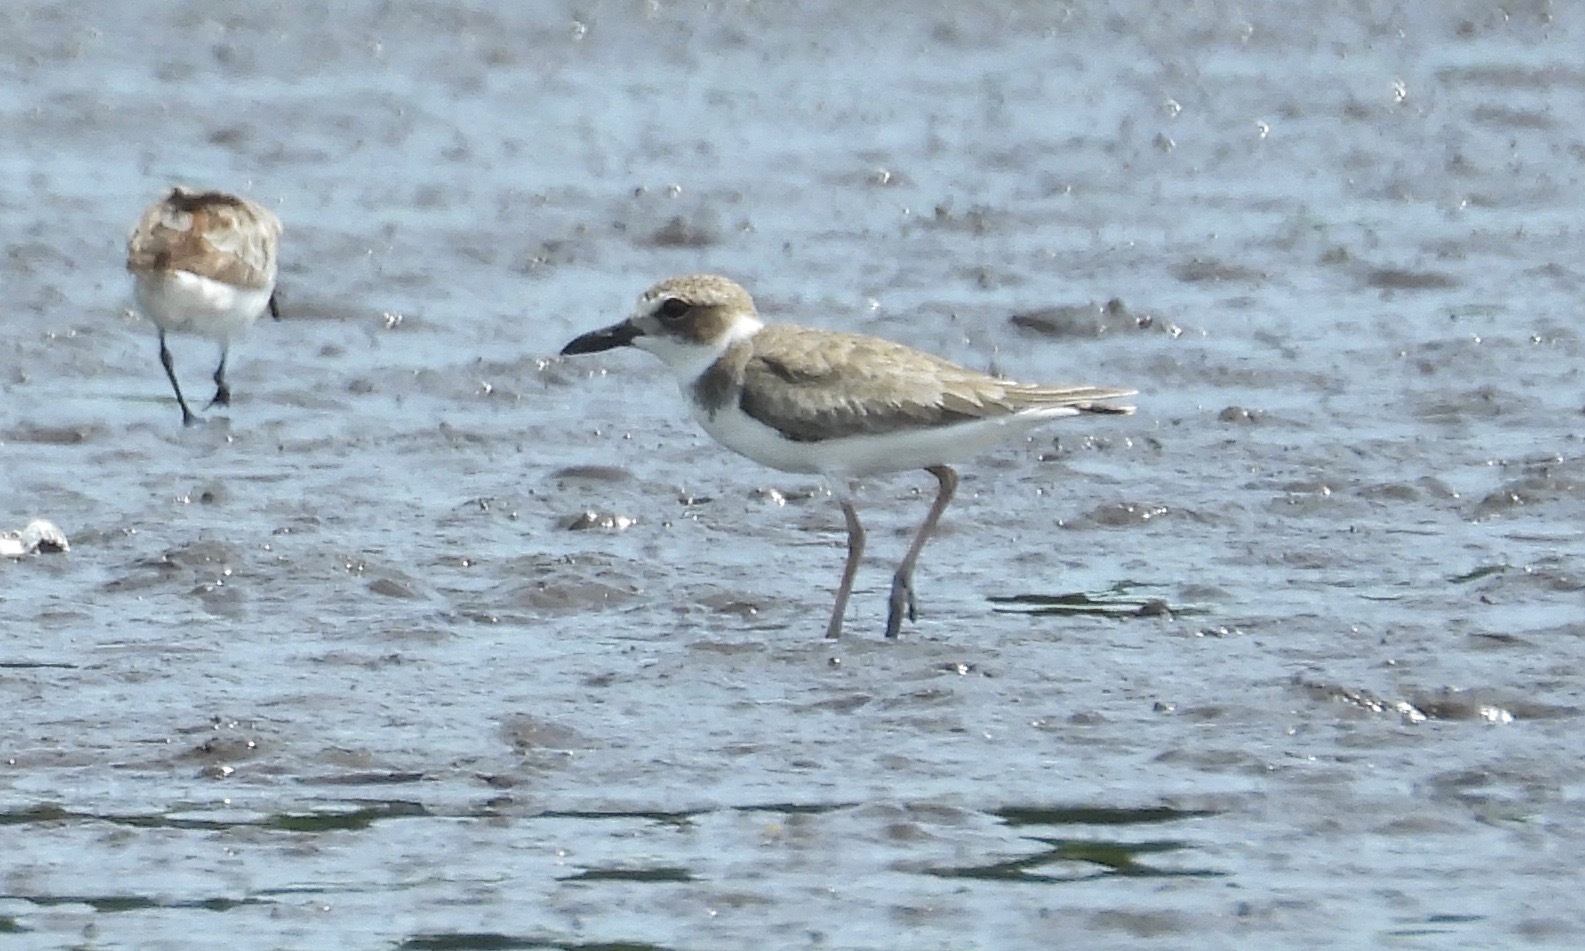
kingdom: Animalia
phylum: Chordata
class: Aves
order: Charadriiformes
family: Charadriidae
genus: Anarhynchus
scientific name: Anarhynchus
